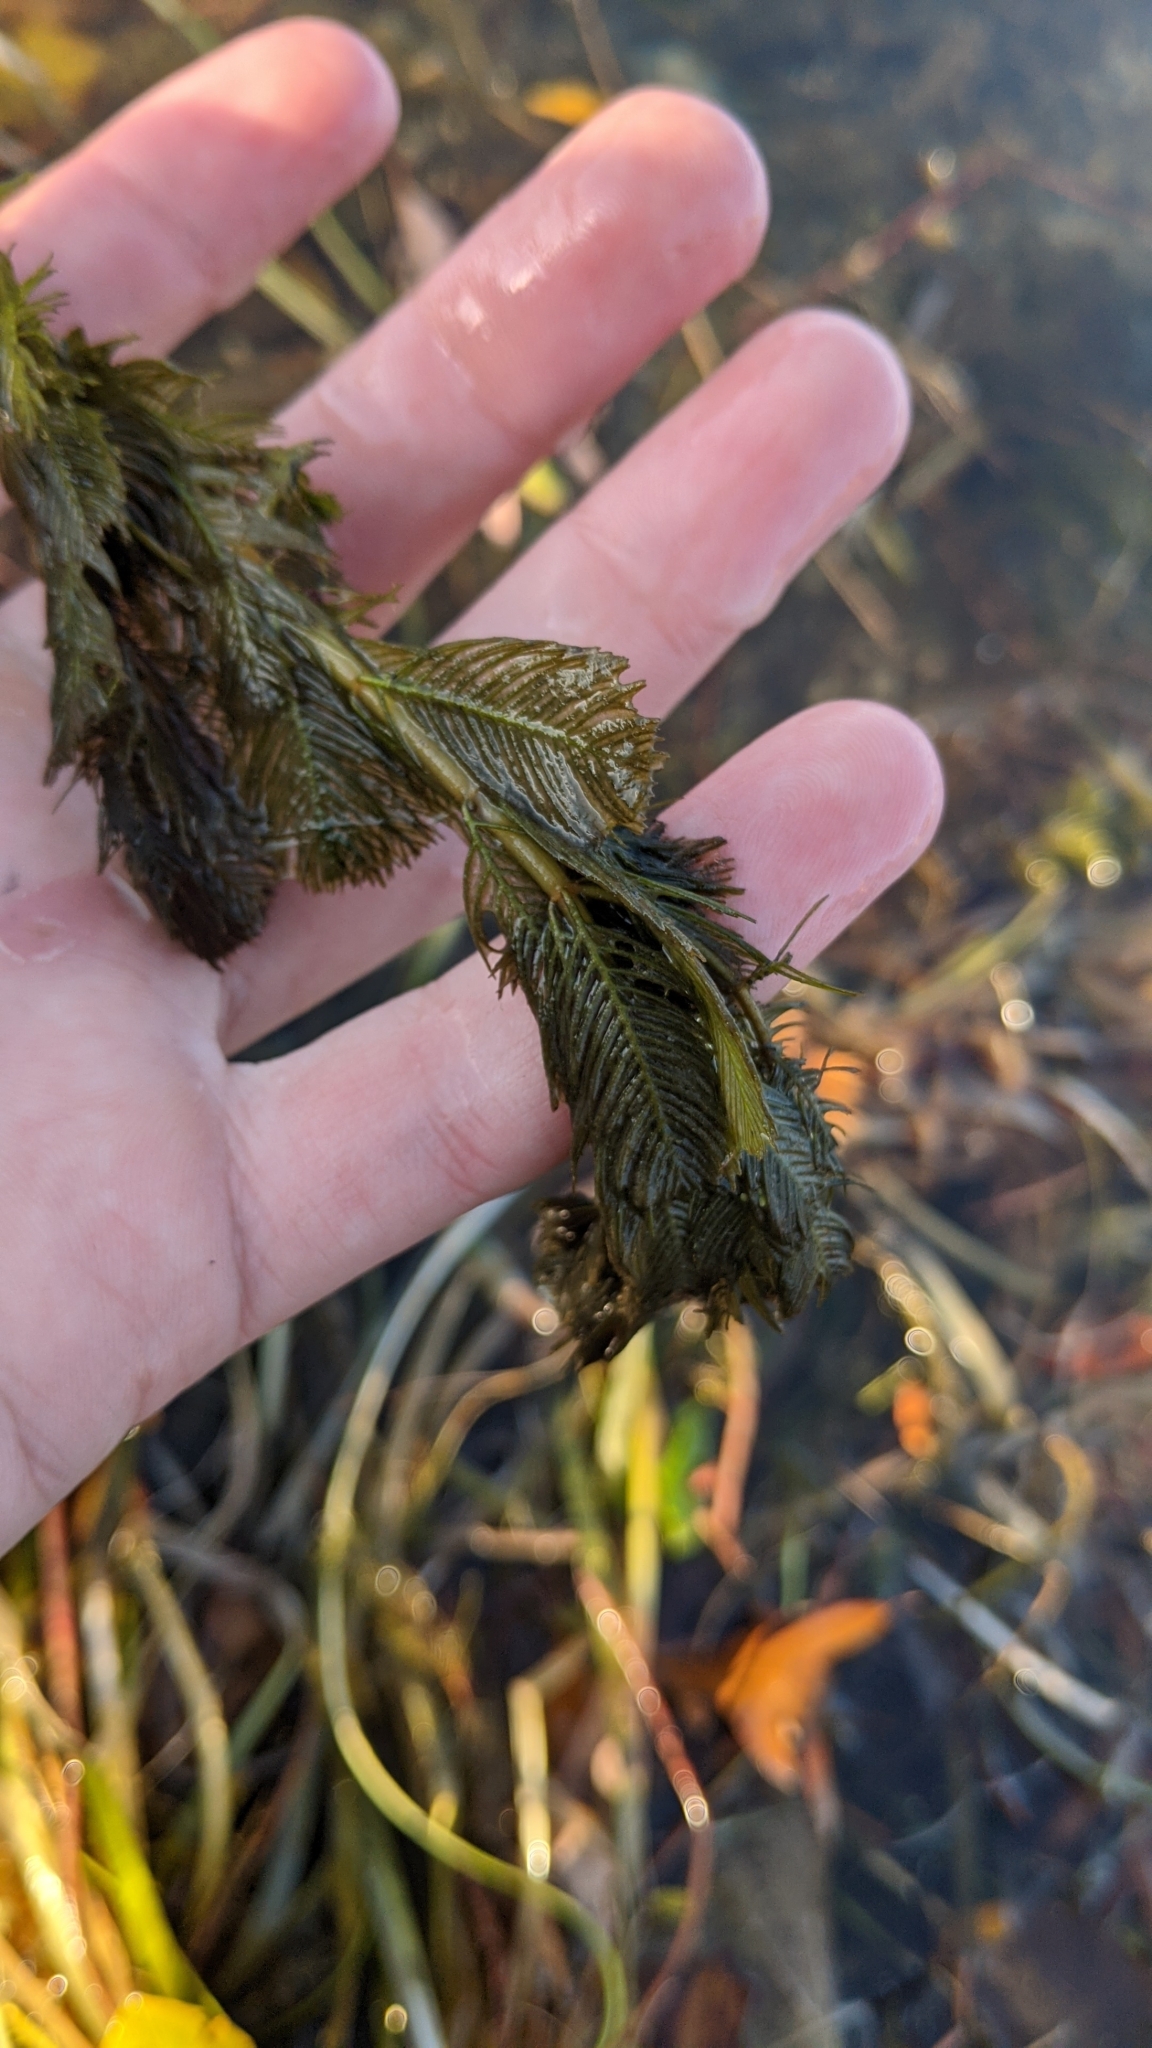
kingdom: Plantae
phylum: Tracheophyta
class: Magnoliopsida
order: Saxifragales
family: Haloragaceae
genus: Myriophyllum
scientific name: Myriophyllum spicatum
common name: Spiked water-milfoil
